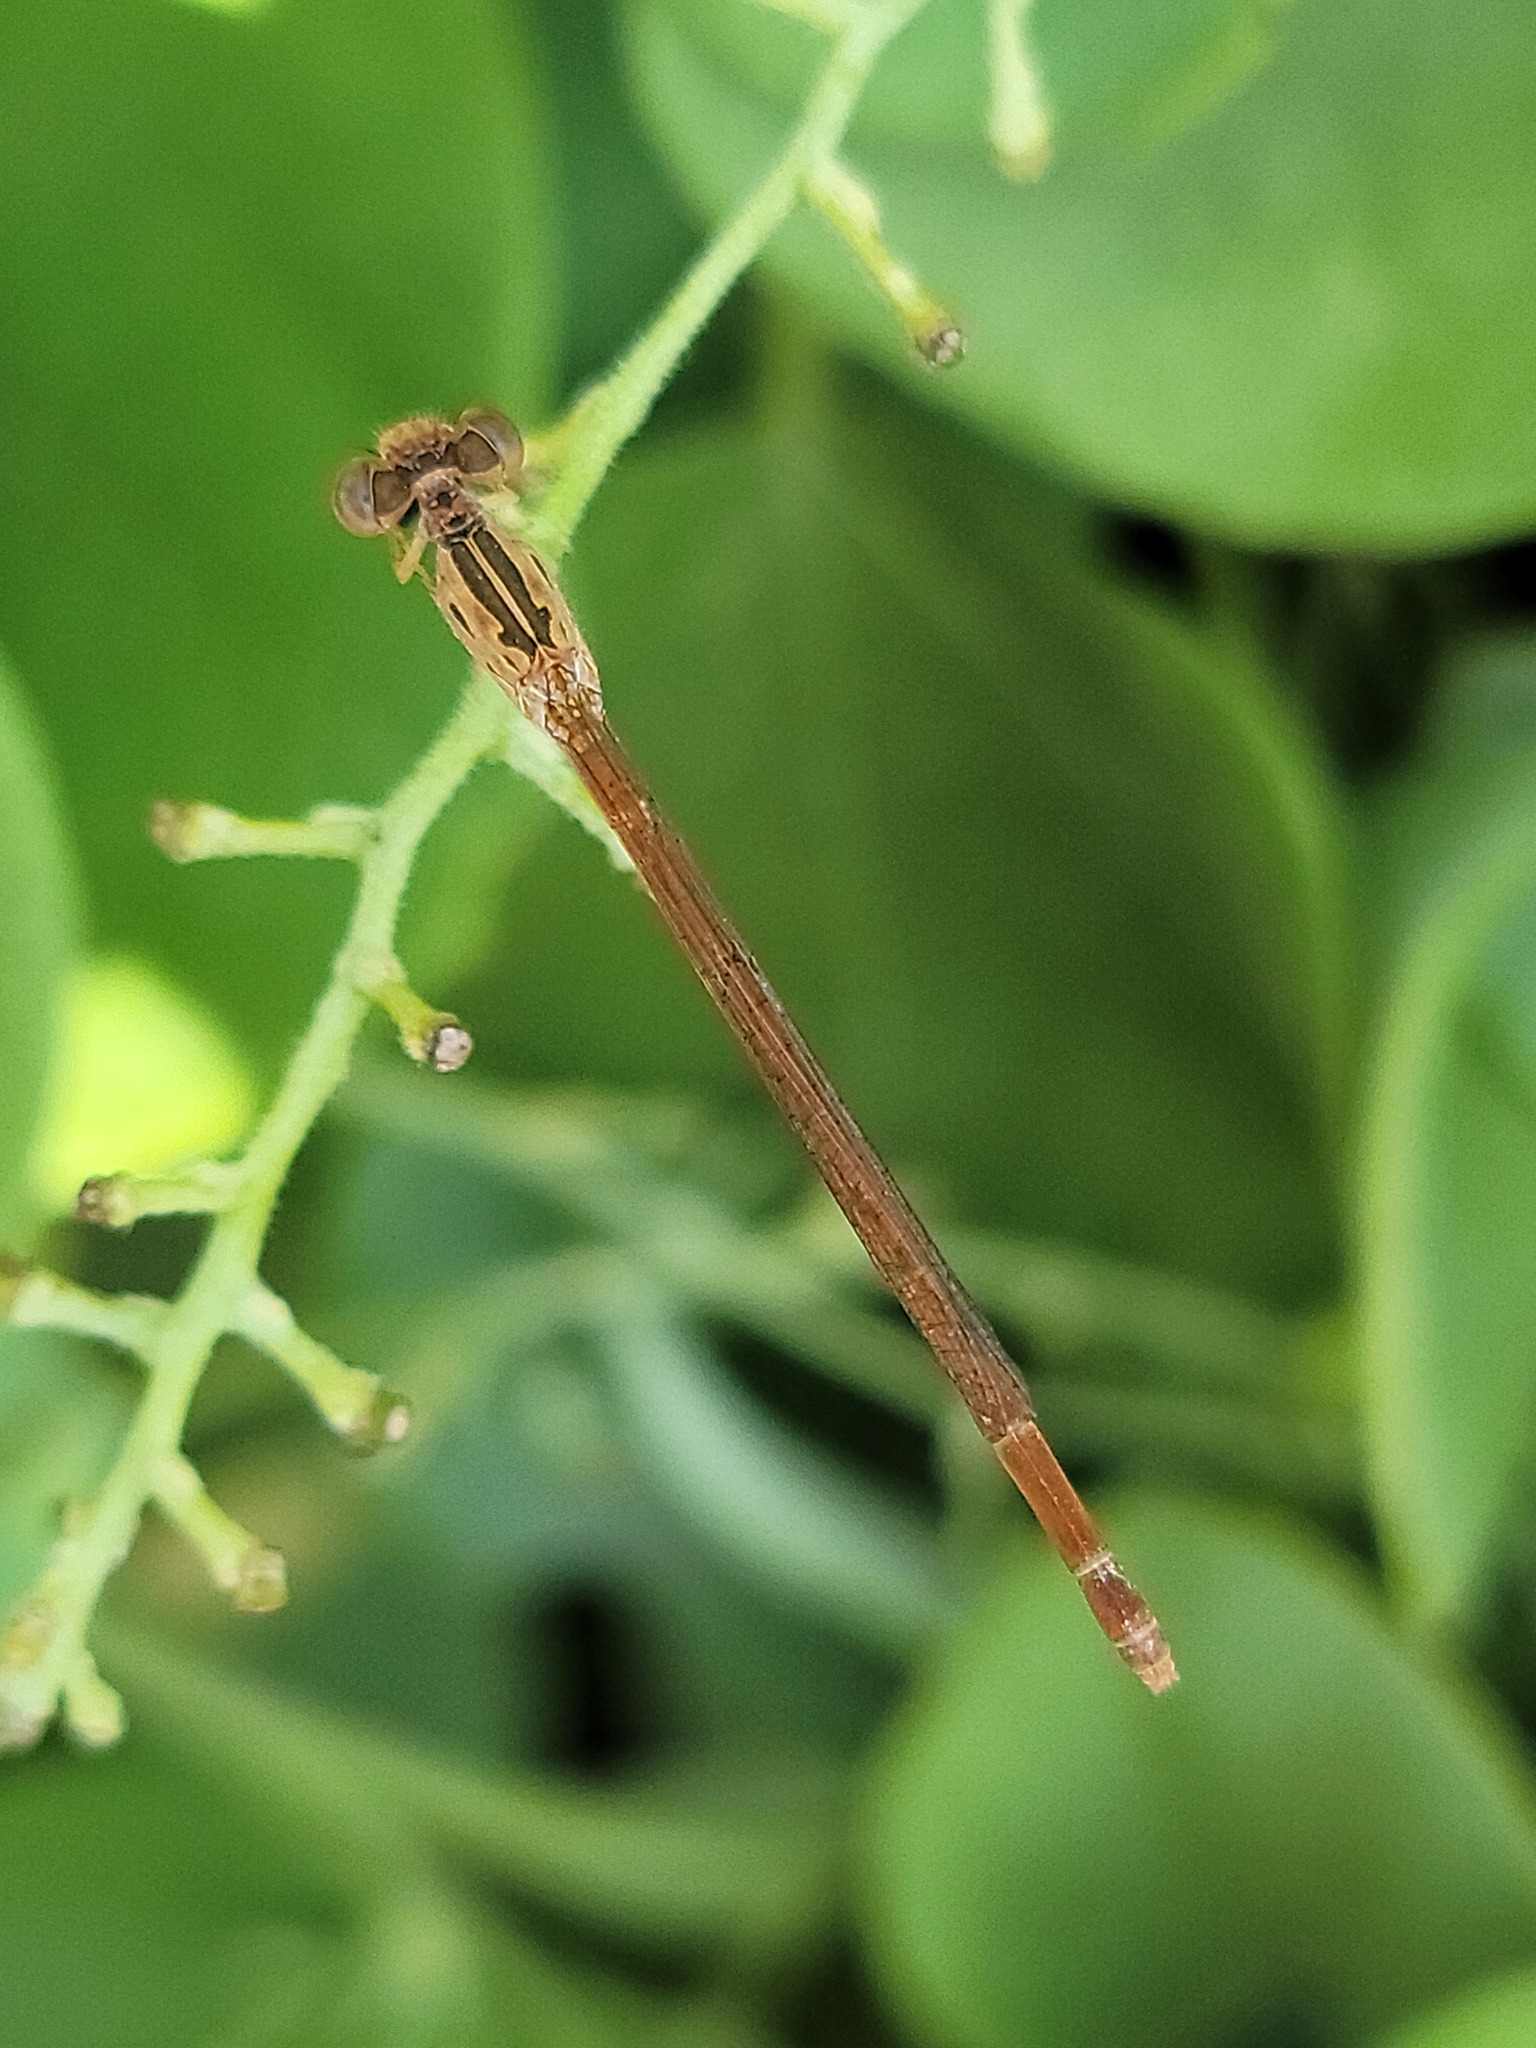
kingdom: Animalia
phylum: Arthropoda
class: Insecta
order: Odonata
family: Coenagrionidae
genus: Telebasis
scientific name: Telebasis salva
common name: Desert firetail
